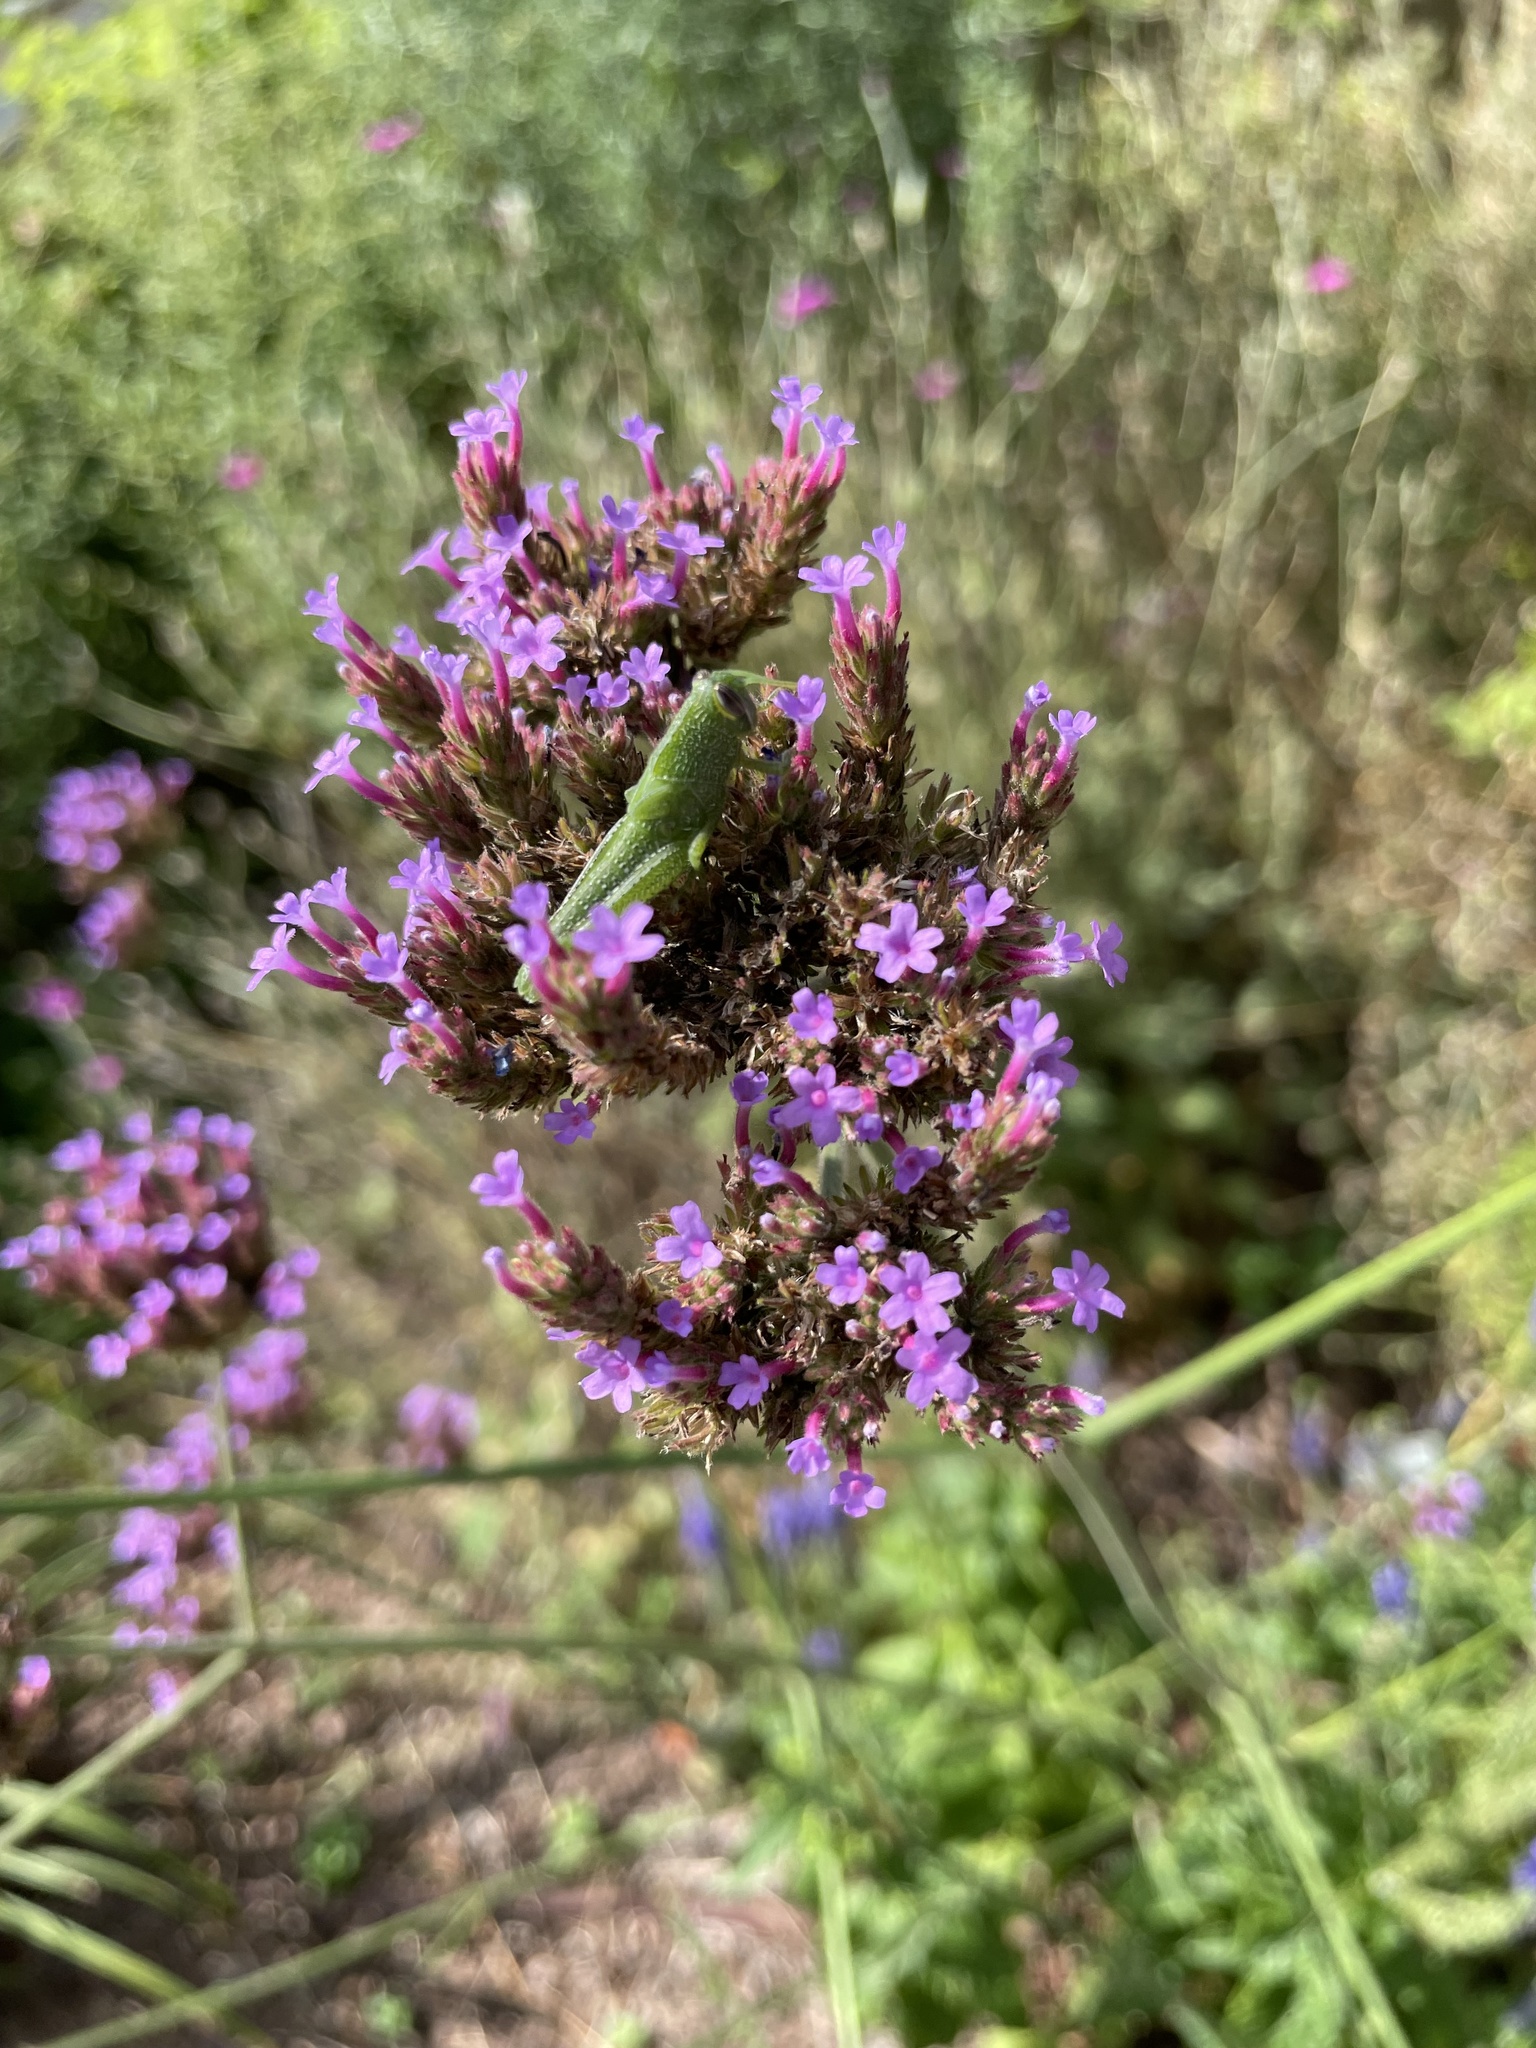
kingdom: Animalia
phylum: Arthropoda
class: Insecta
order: Orthoptera
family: Acrididae
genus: Schistocerca
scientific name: Schistocerca obscura
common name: Obscure bird grasshopper
